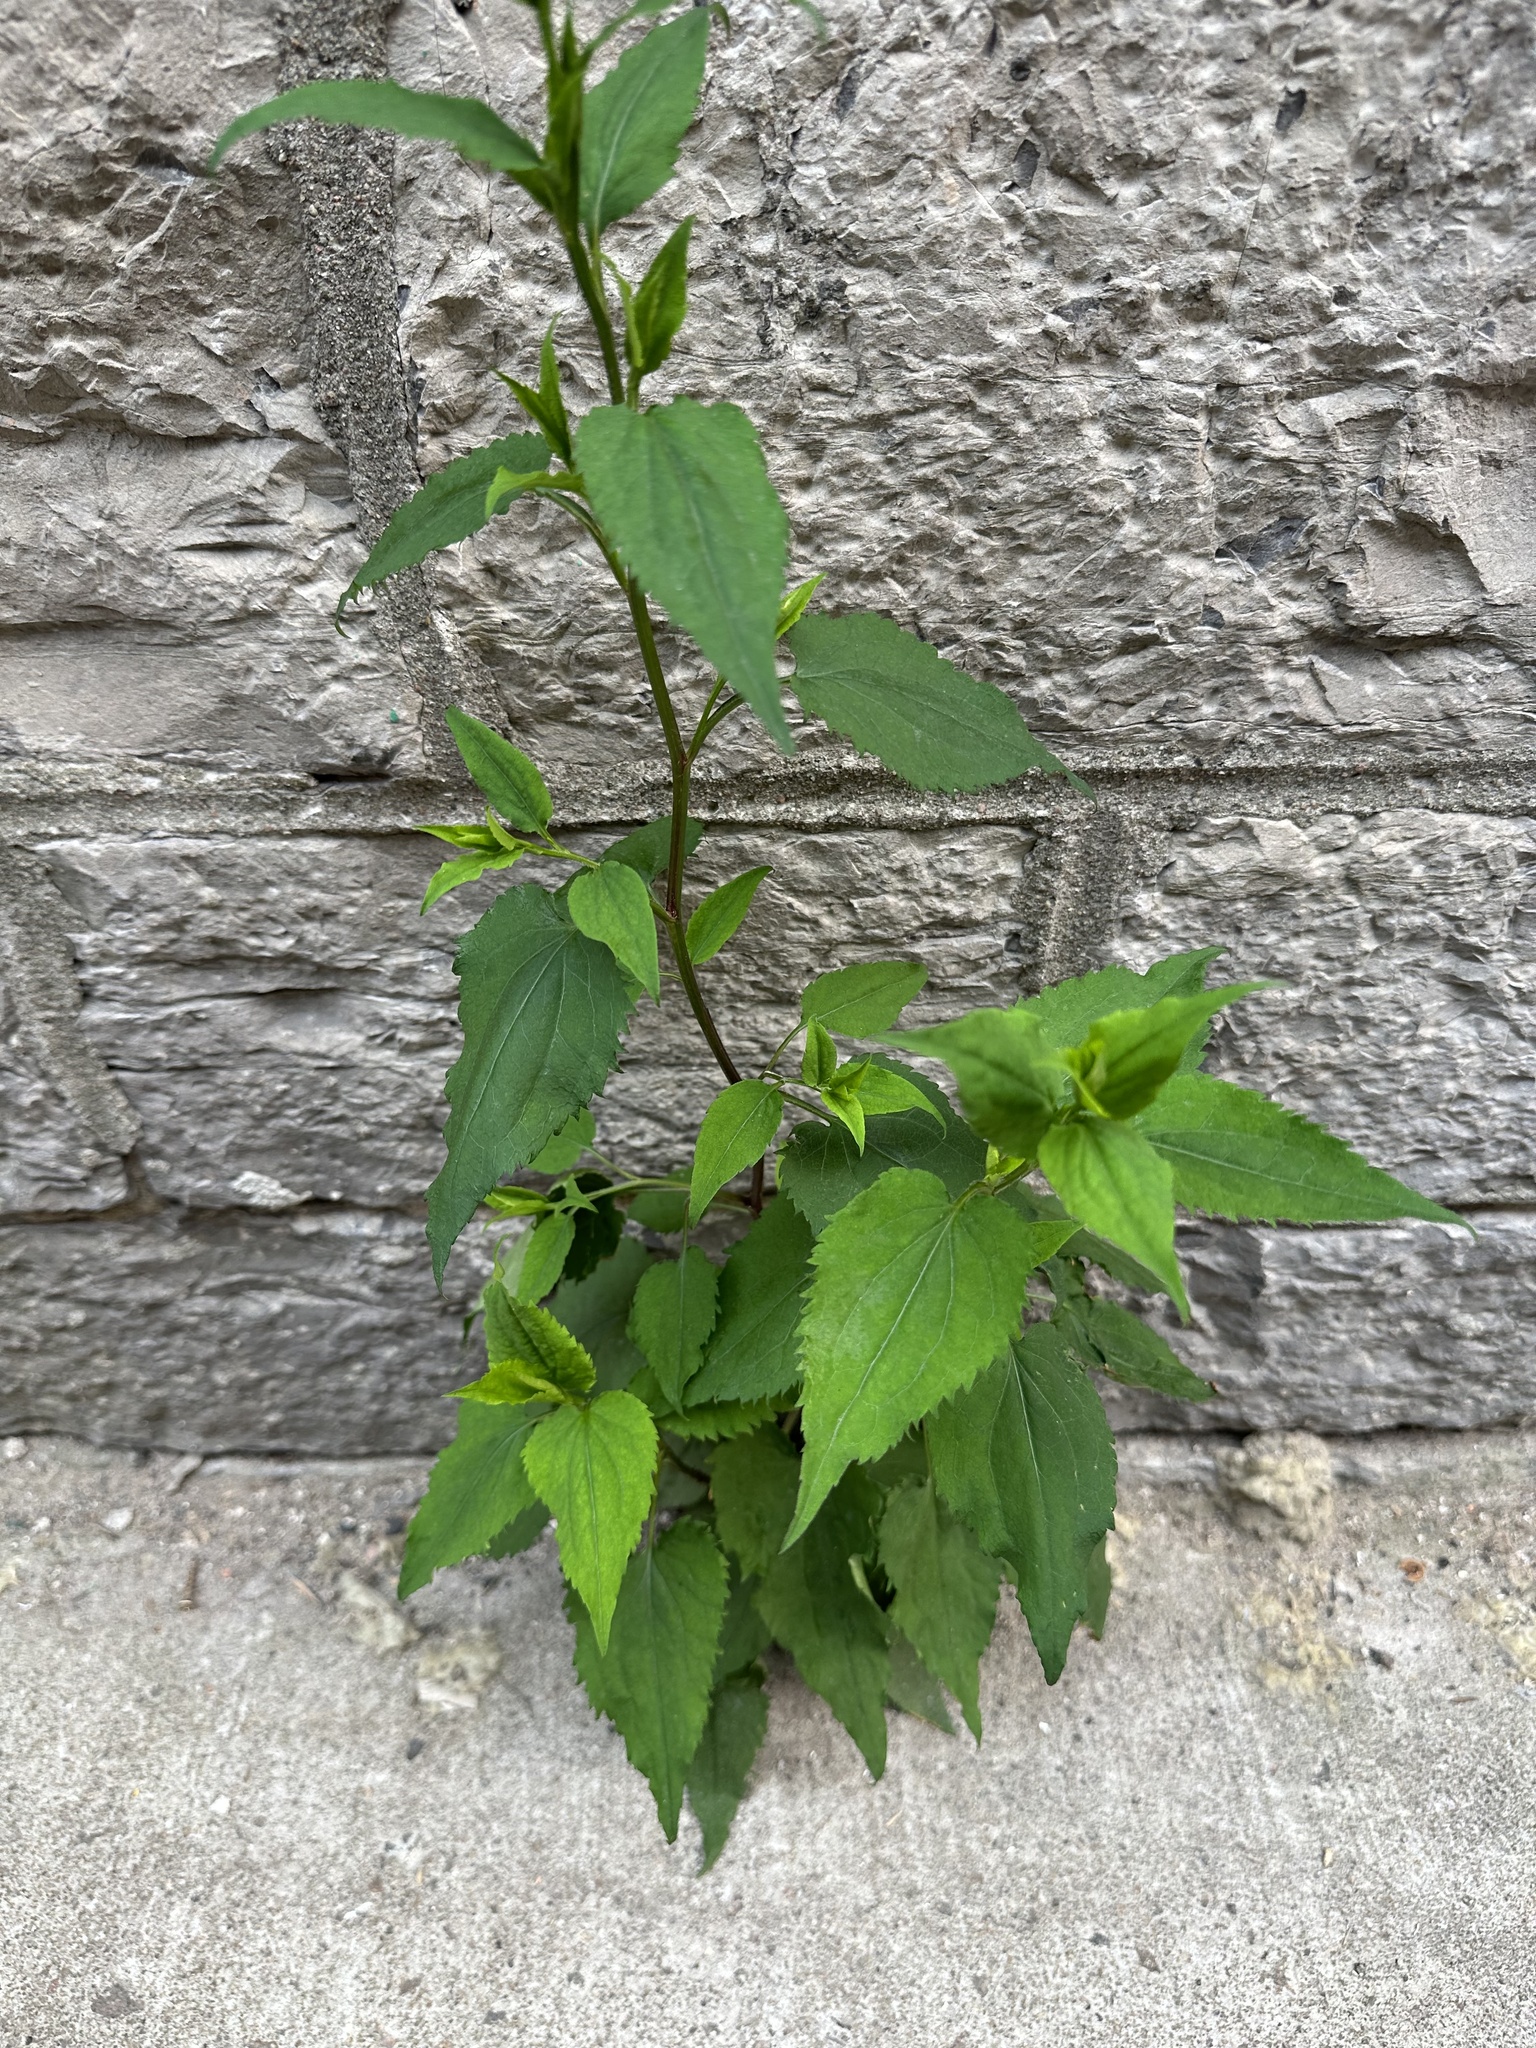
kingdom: Plantae
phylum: Tracheophyta
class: Magnoliopsida
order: Asterales
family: Asteraceae
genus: Symphyotrichum
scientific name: Symphyotrichum cordifolium
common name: Beeweed
